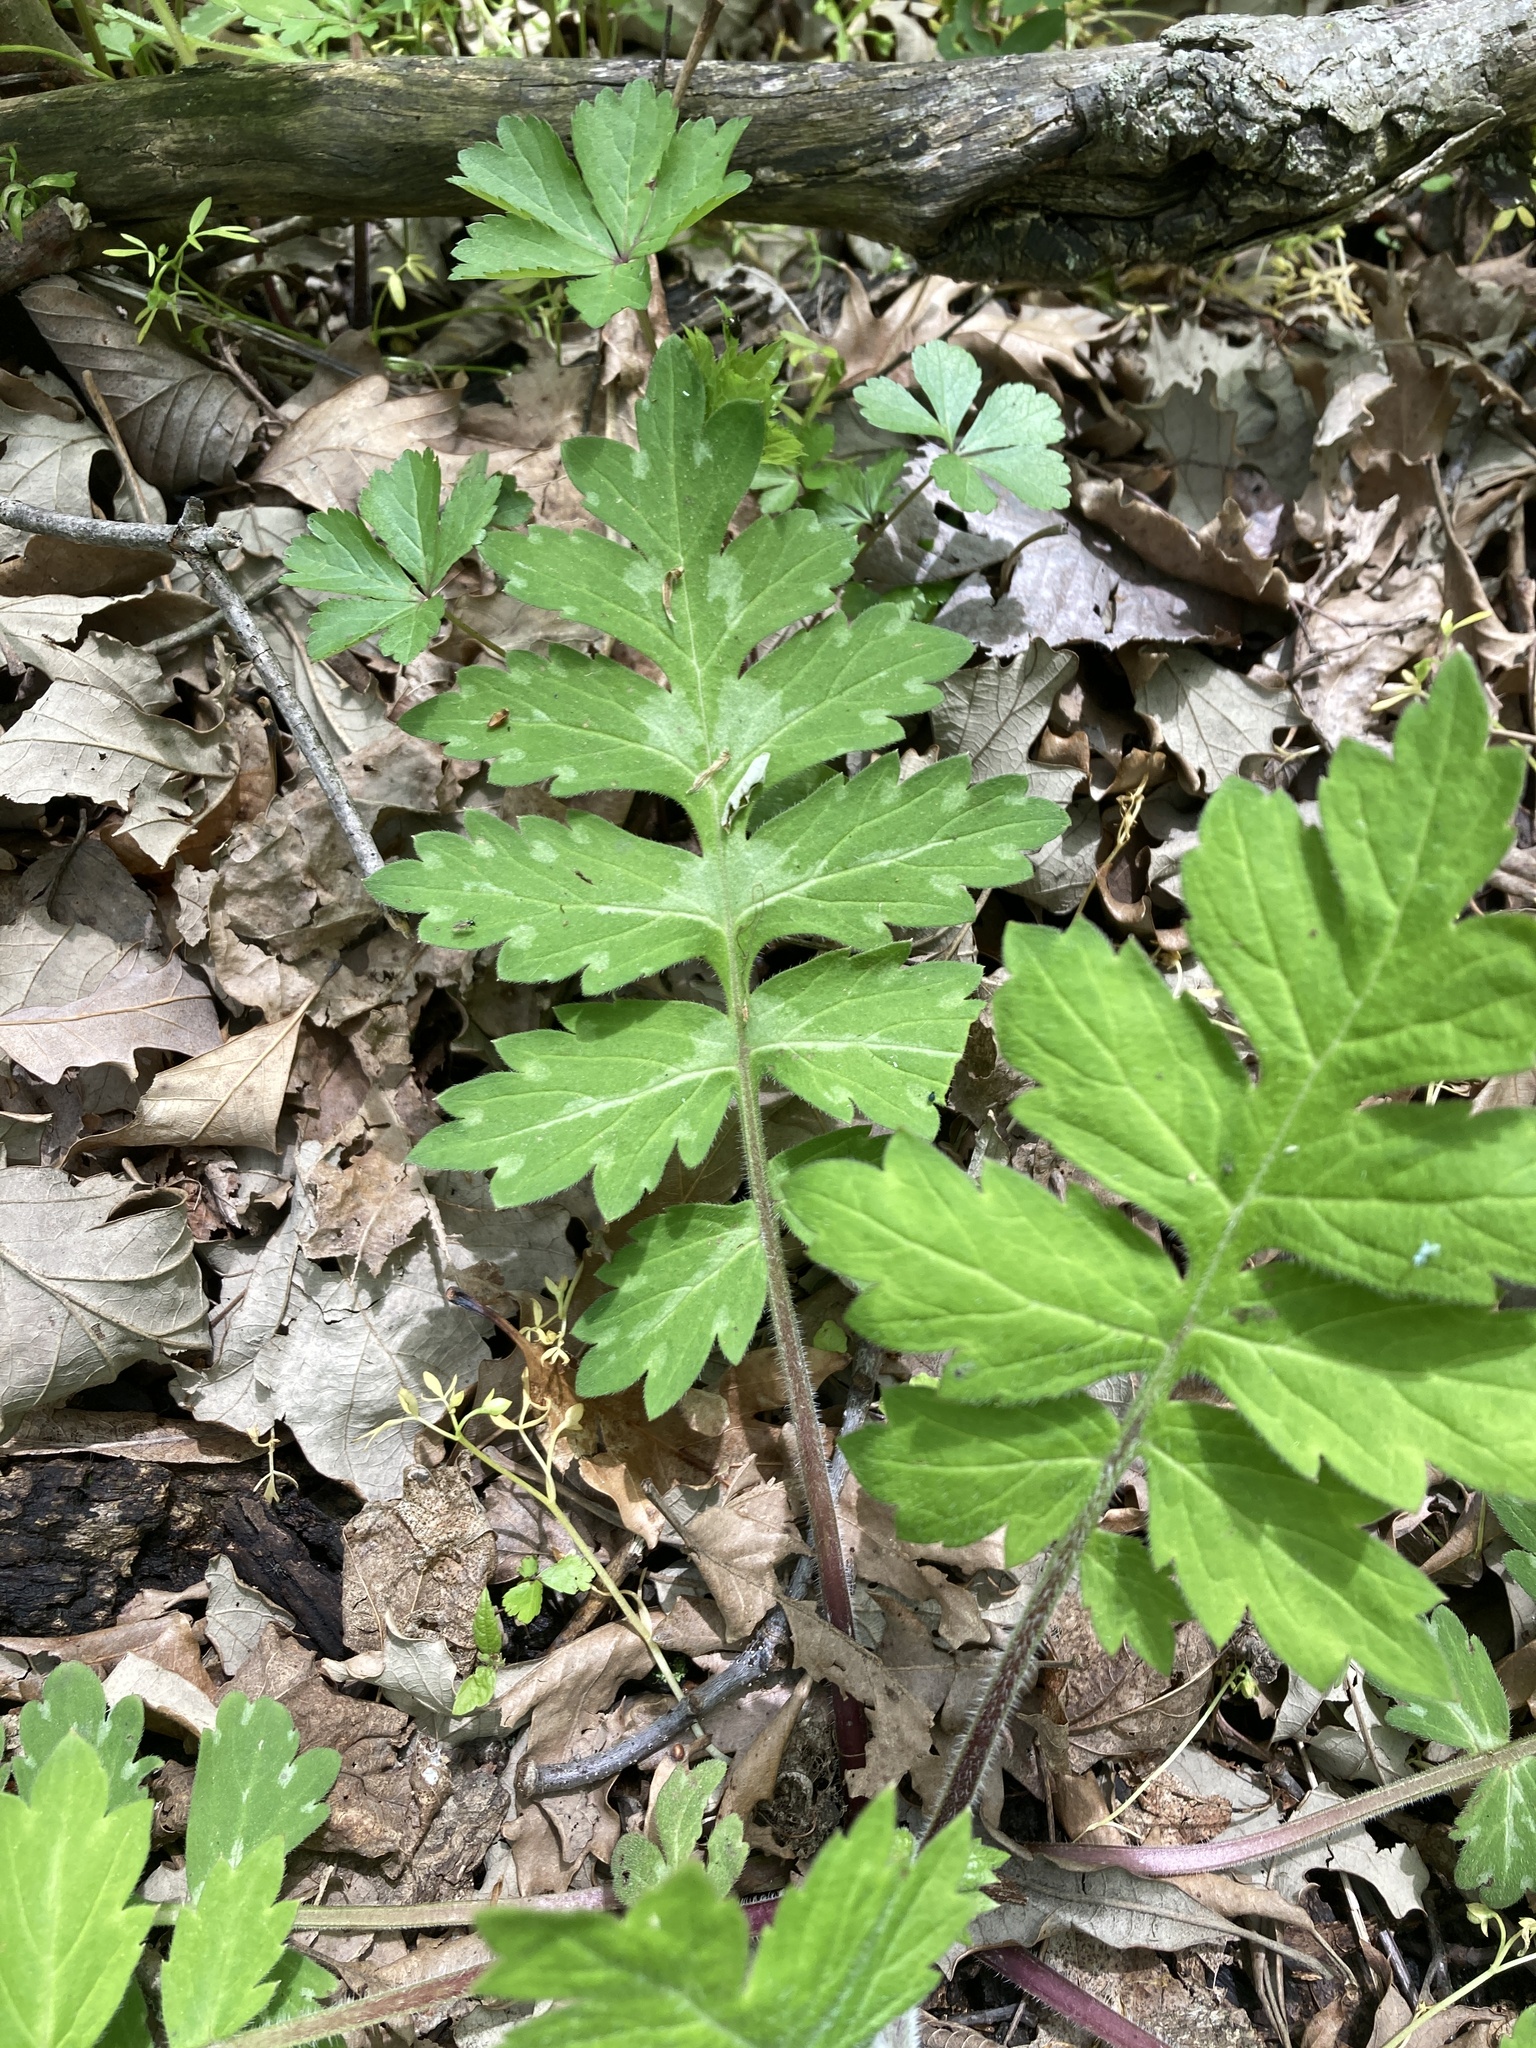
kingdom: Plantae
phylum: Tracheophyta
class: Magnoliopsida
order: Boraginales
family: Hydrophyllaceae
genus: Hydrophyllum
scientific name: Hydrophyllum macrophyllum
